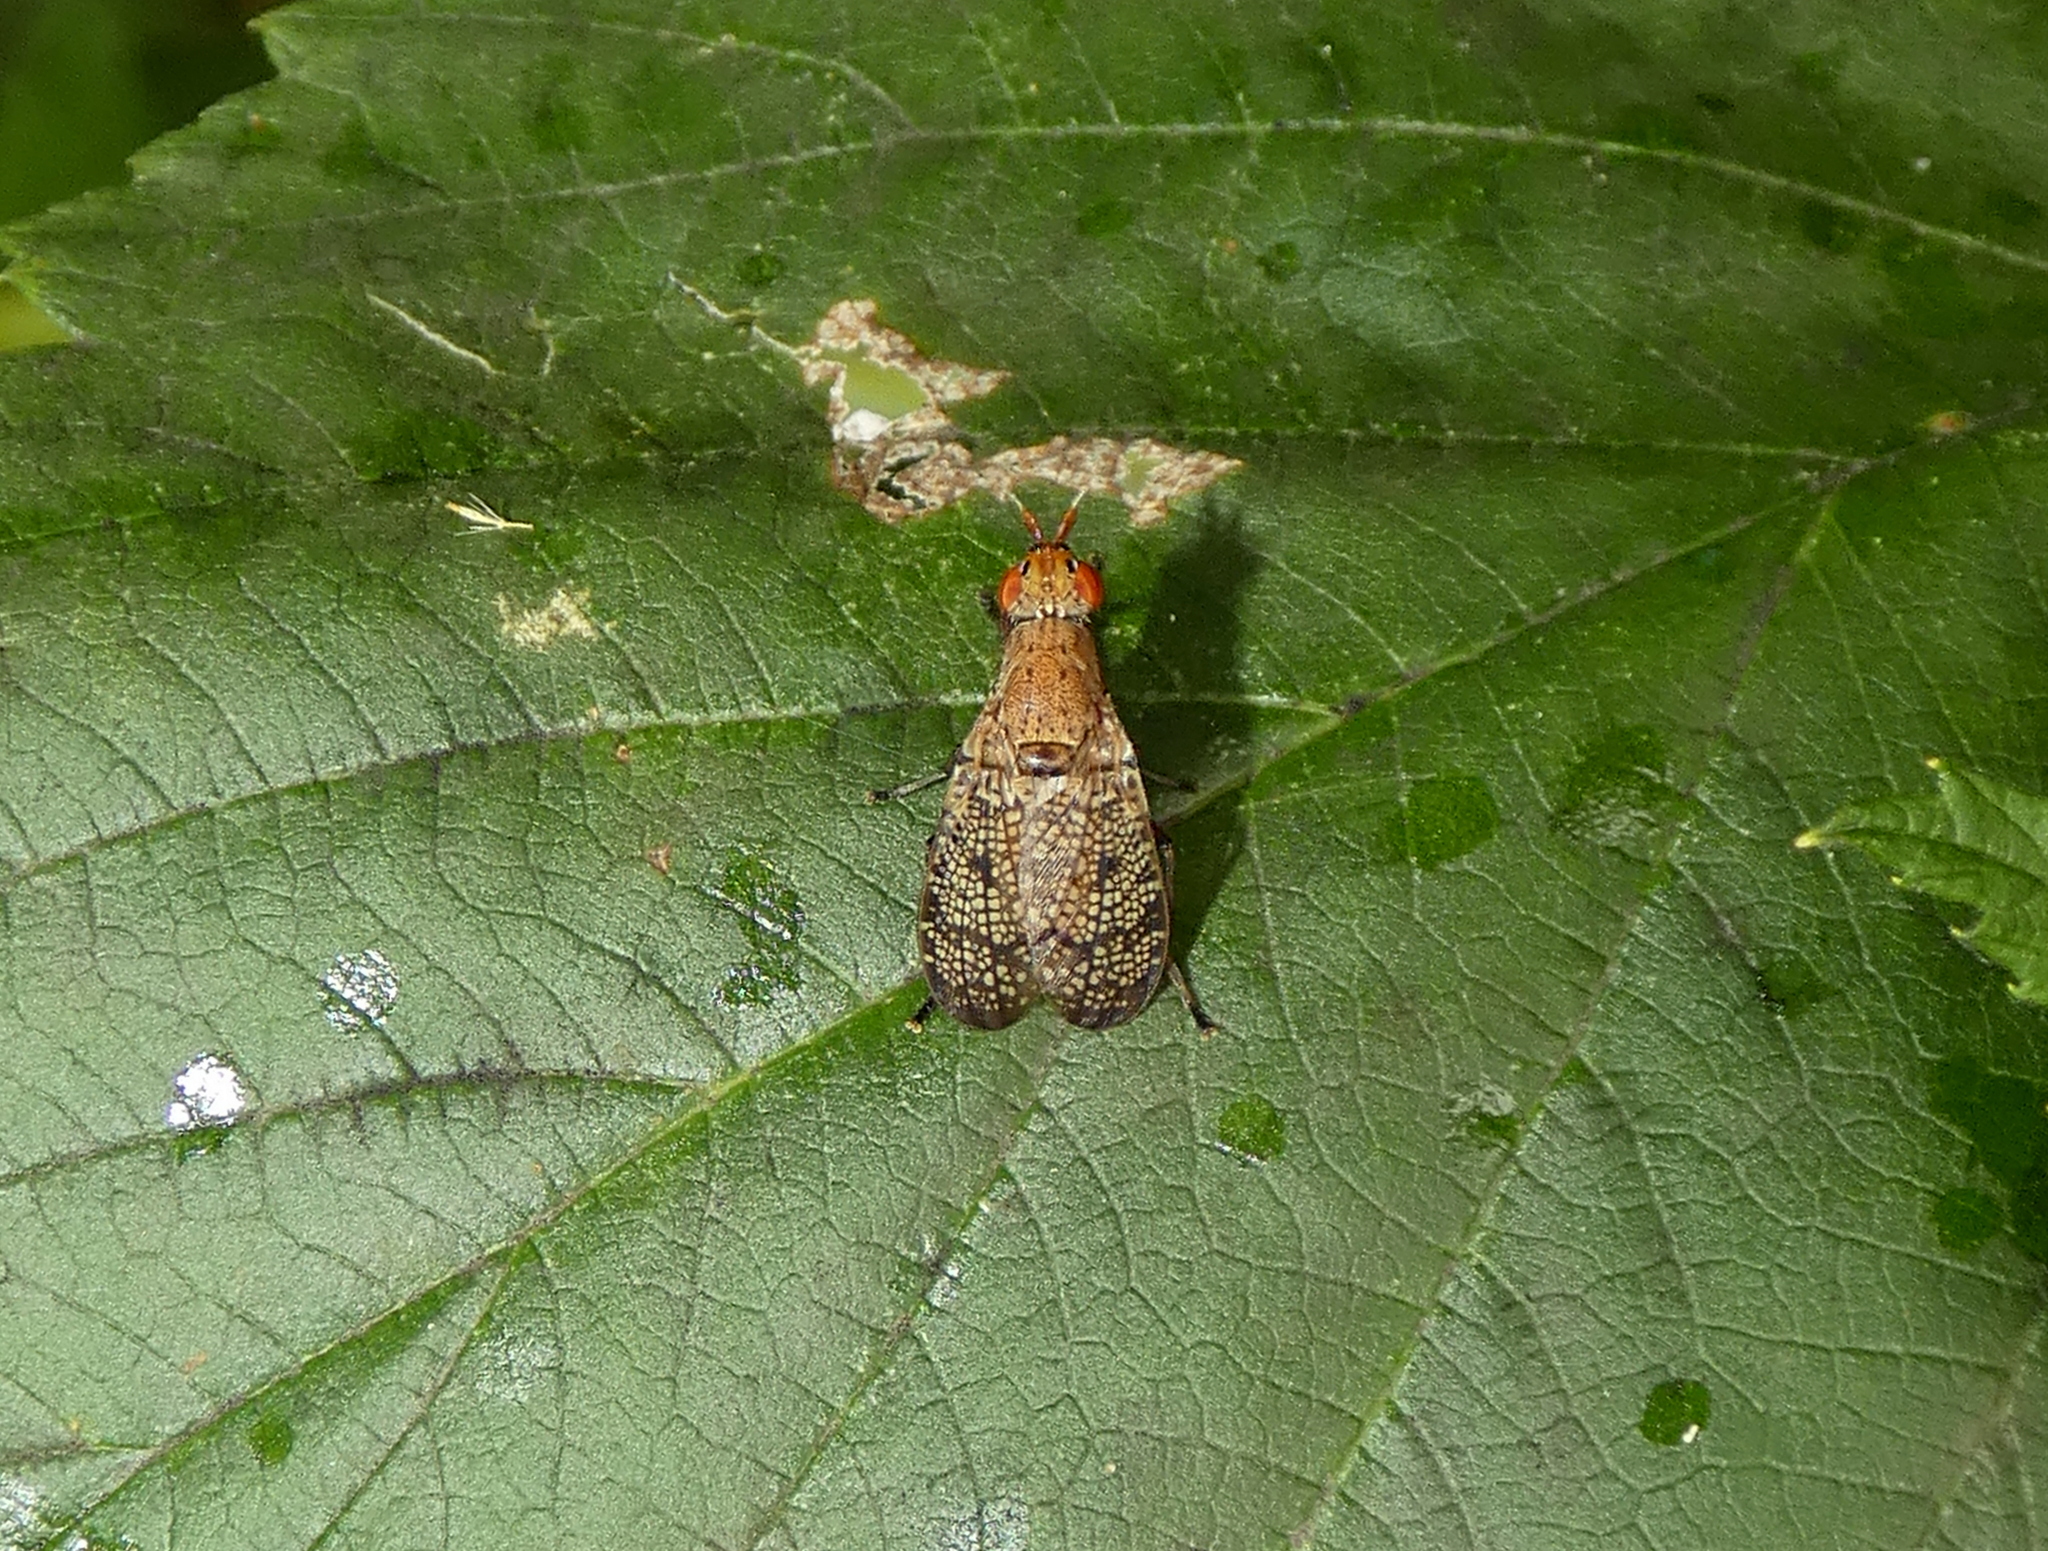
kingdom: Animalia
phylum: Arthropoda
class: Insecta
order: Diptera
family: Sciomyzidae
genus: Euthycera
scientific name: Euthycera flavescens
